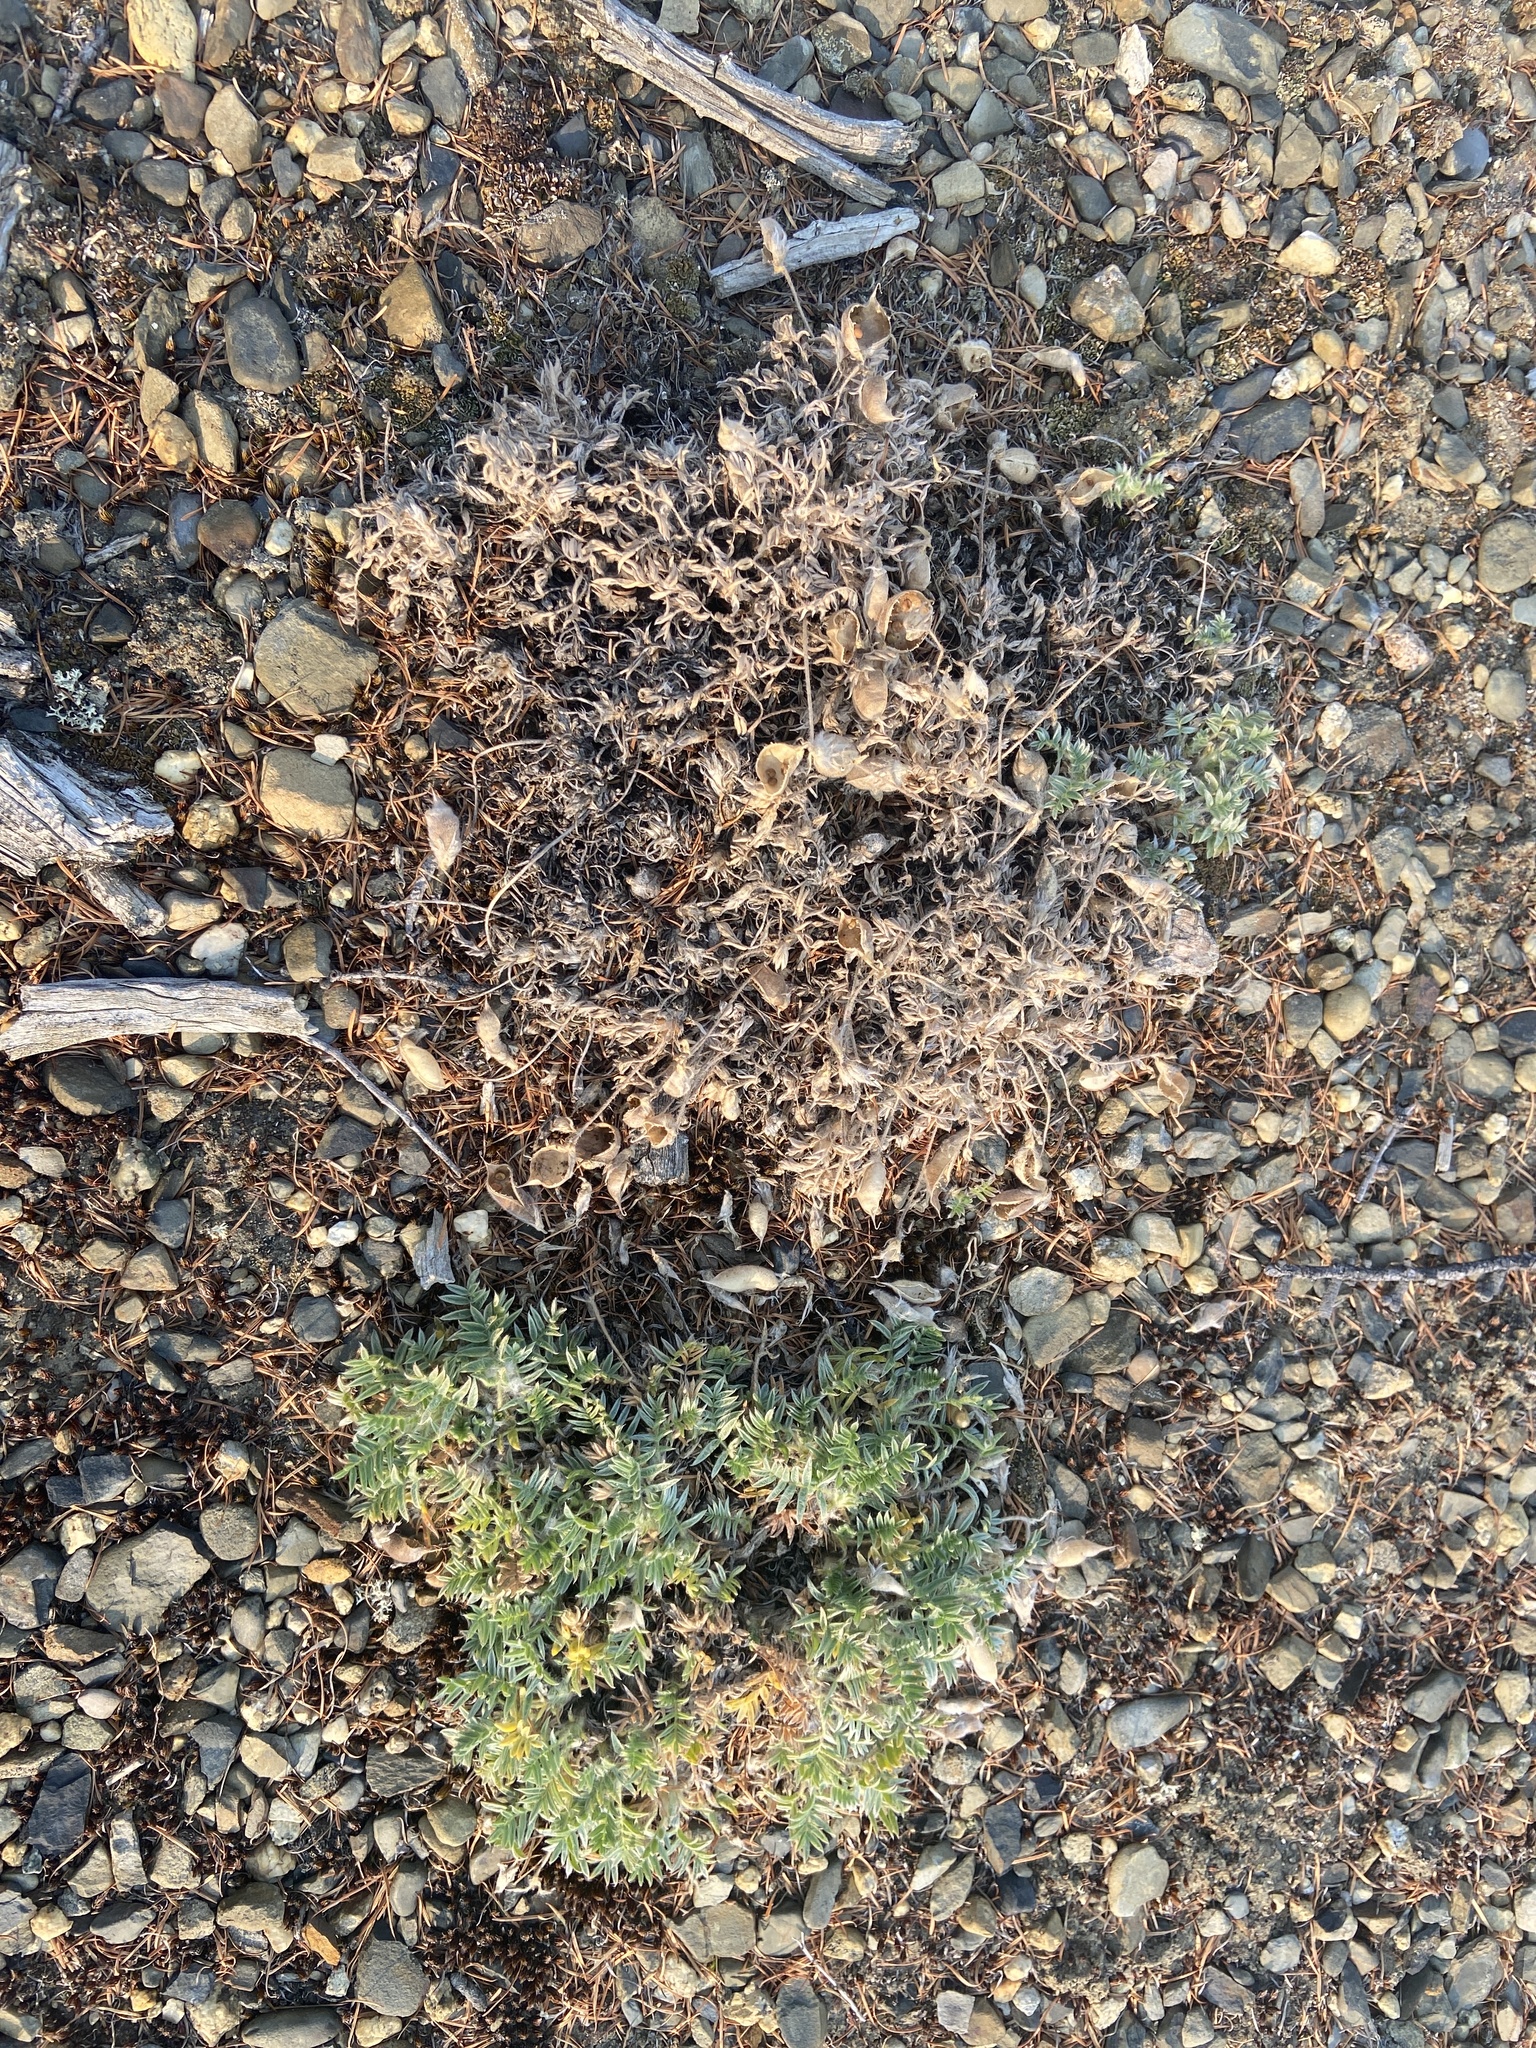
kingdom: Plantae
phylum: Tracheophyta
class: Magnoliopsida
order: Fabales
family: Fabaceae
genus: Oxytropis
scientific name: Oxytropis susumanica
